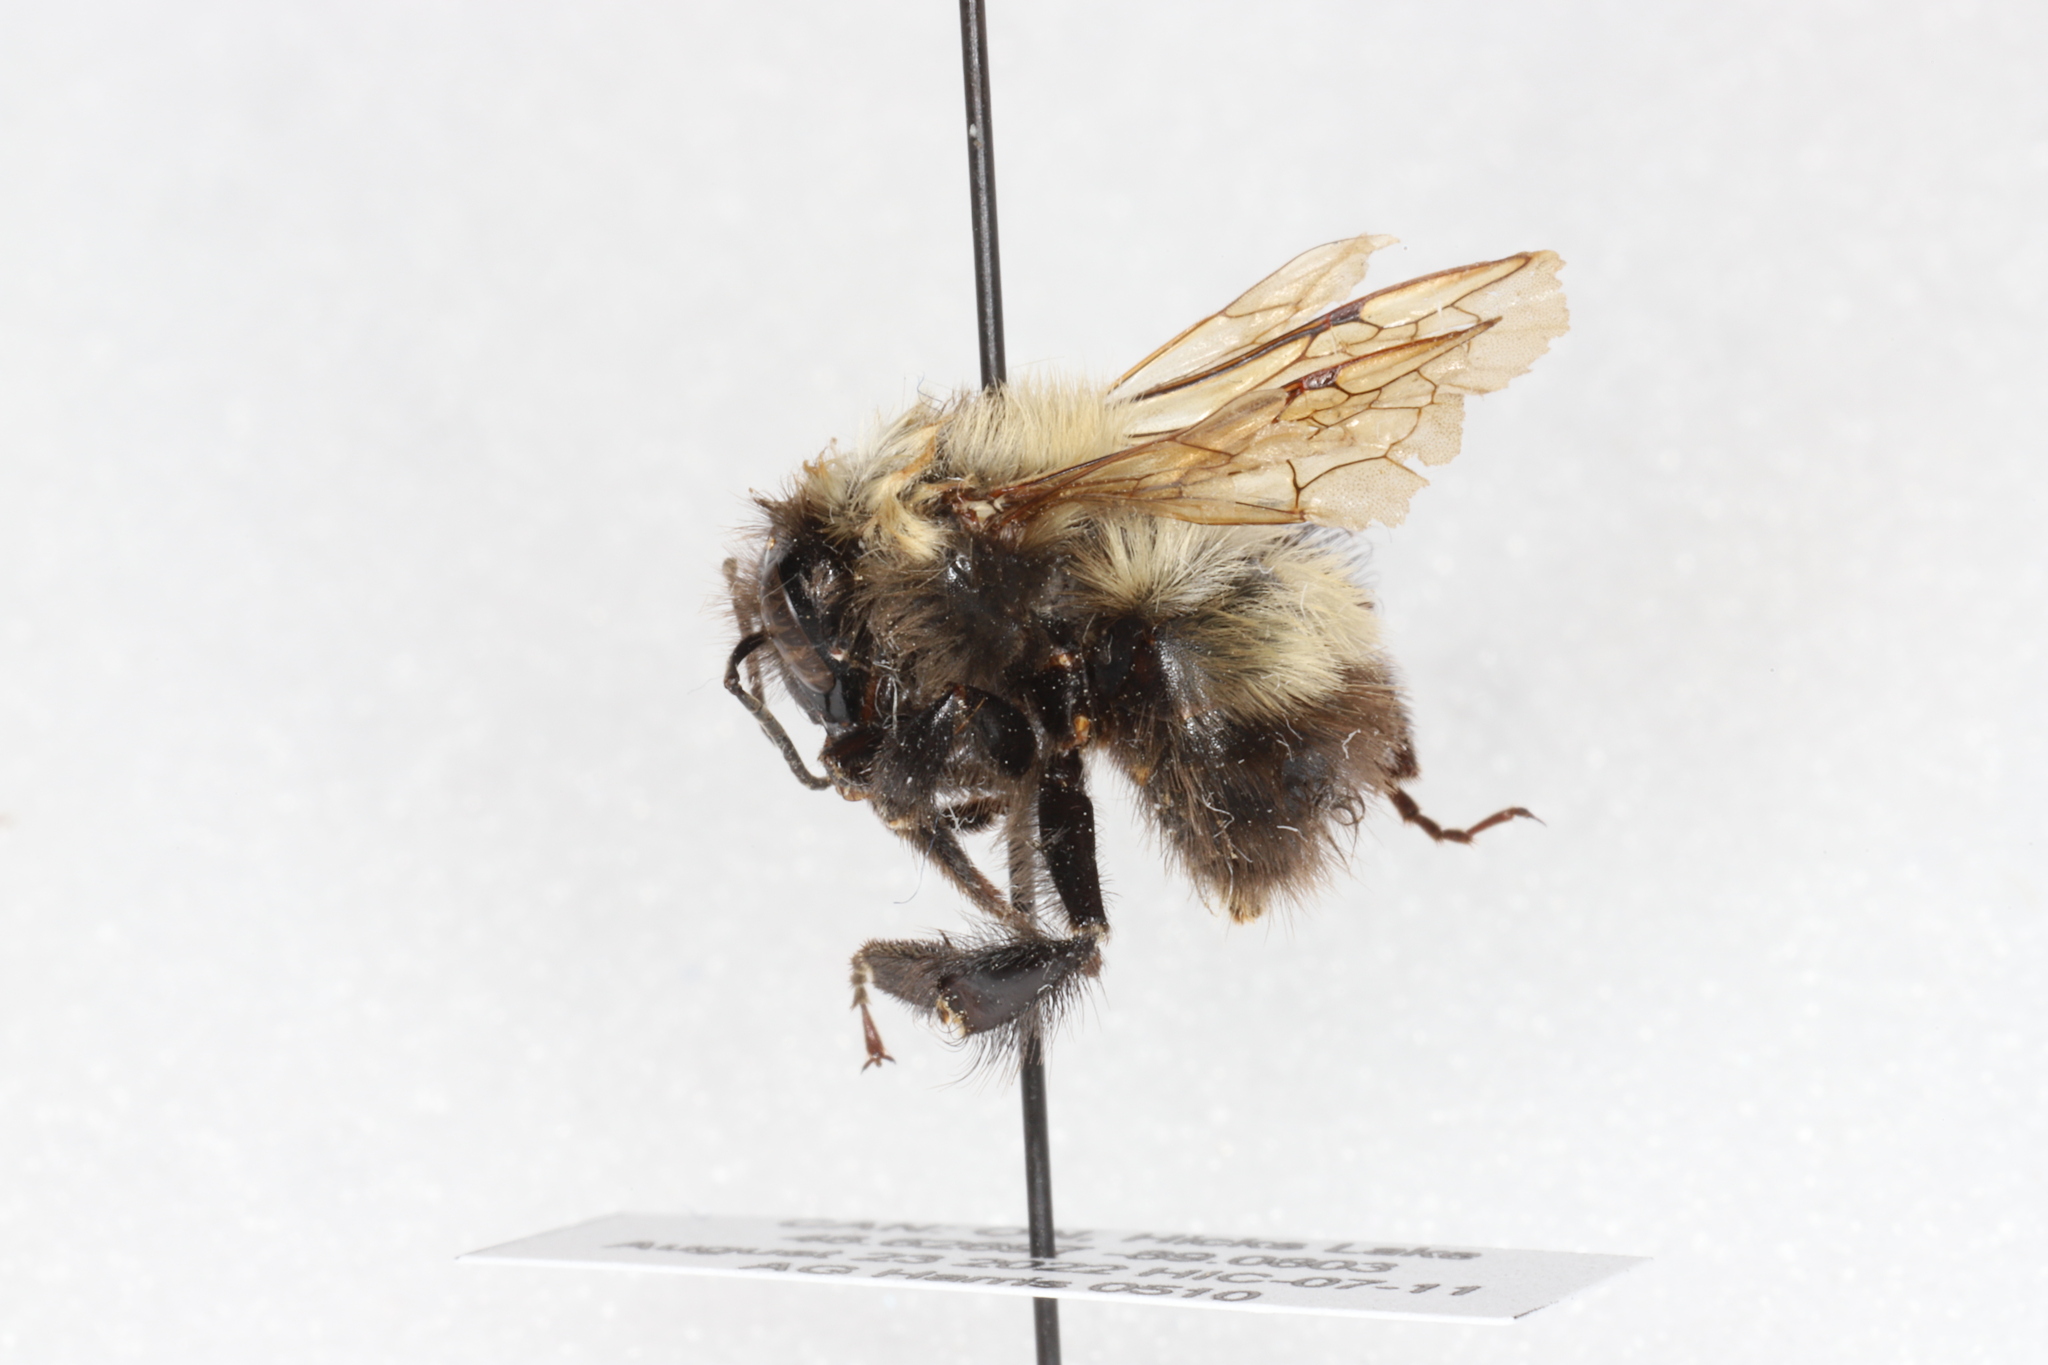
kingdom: Animalia
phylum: Arthropoda
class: Insecta
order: Hymenoptera
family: Apidae
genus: Bombus
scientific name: Bombus perplexus
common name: Confusing bumble bee
